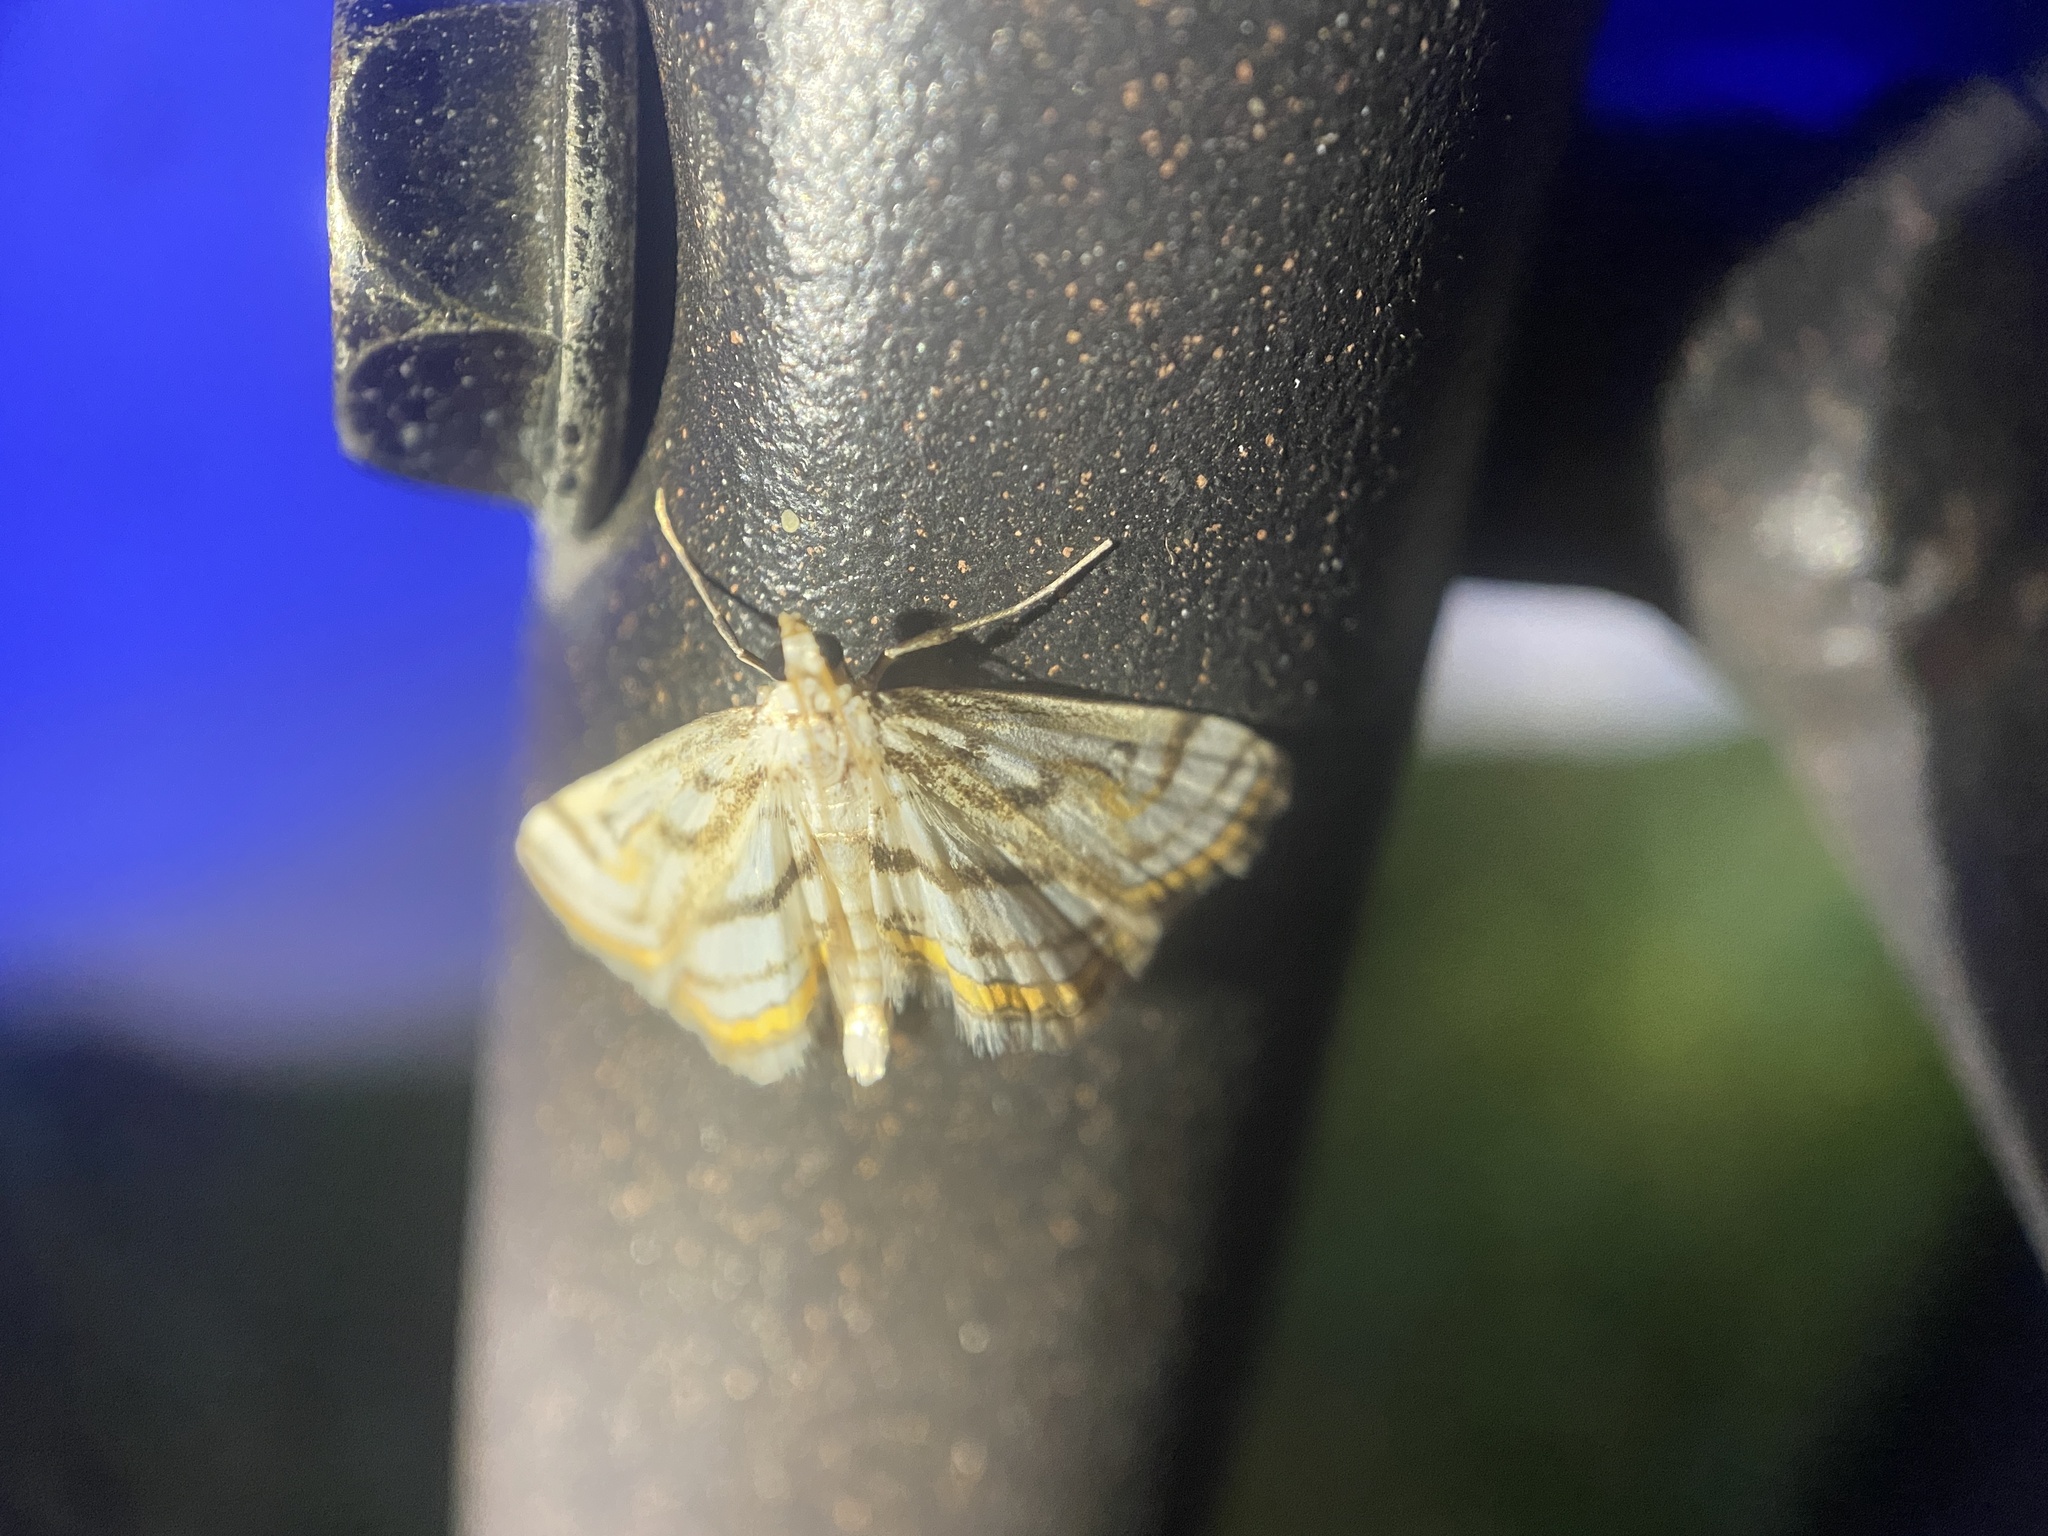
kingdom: Animalia
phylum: Arthropoda
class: Insecta
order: Lepidoptera
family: Crambidae
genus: Parapoynx
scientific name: Parapoynx badiusalis
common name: Chestnut-marked pondweed moth
